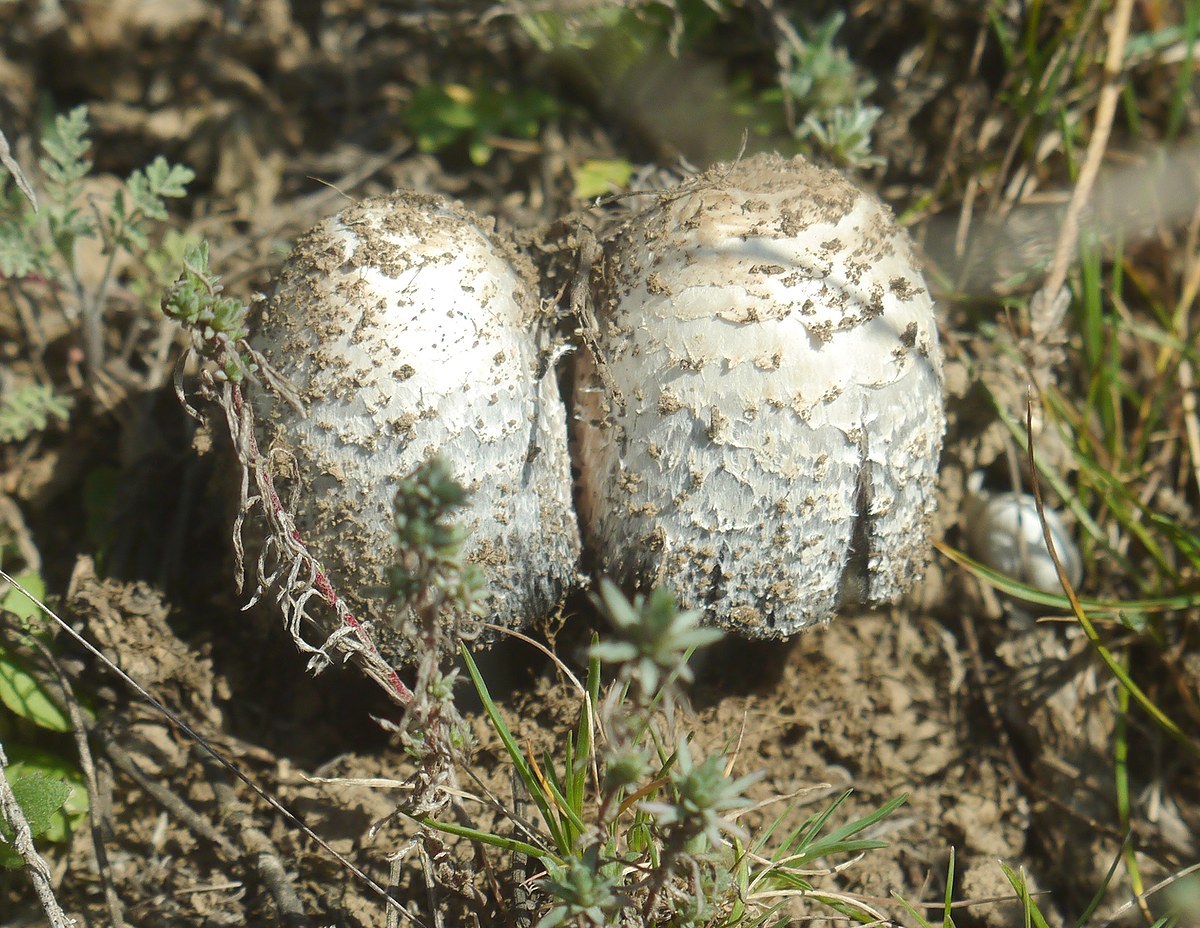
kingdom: Fungi
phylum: Basidiomycota
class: Agaricomycetes
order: Agaricales
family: Agaricaceae
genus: Coprinus
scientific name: Coprinus comatus
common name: Lawyer's wig
